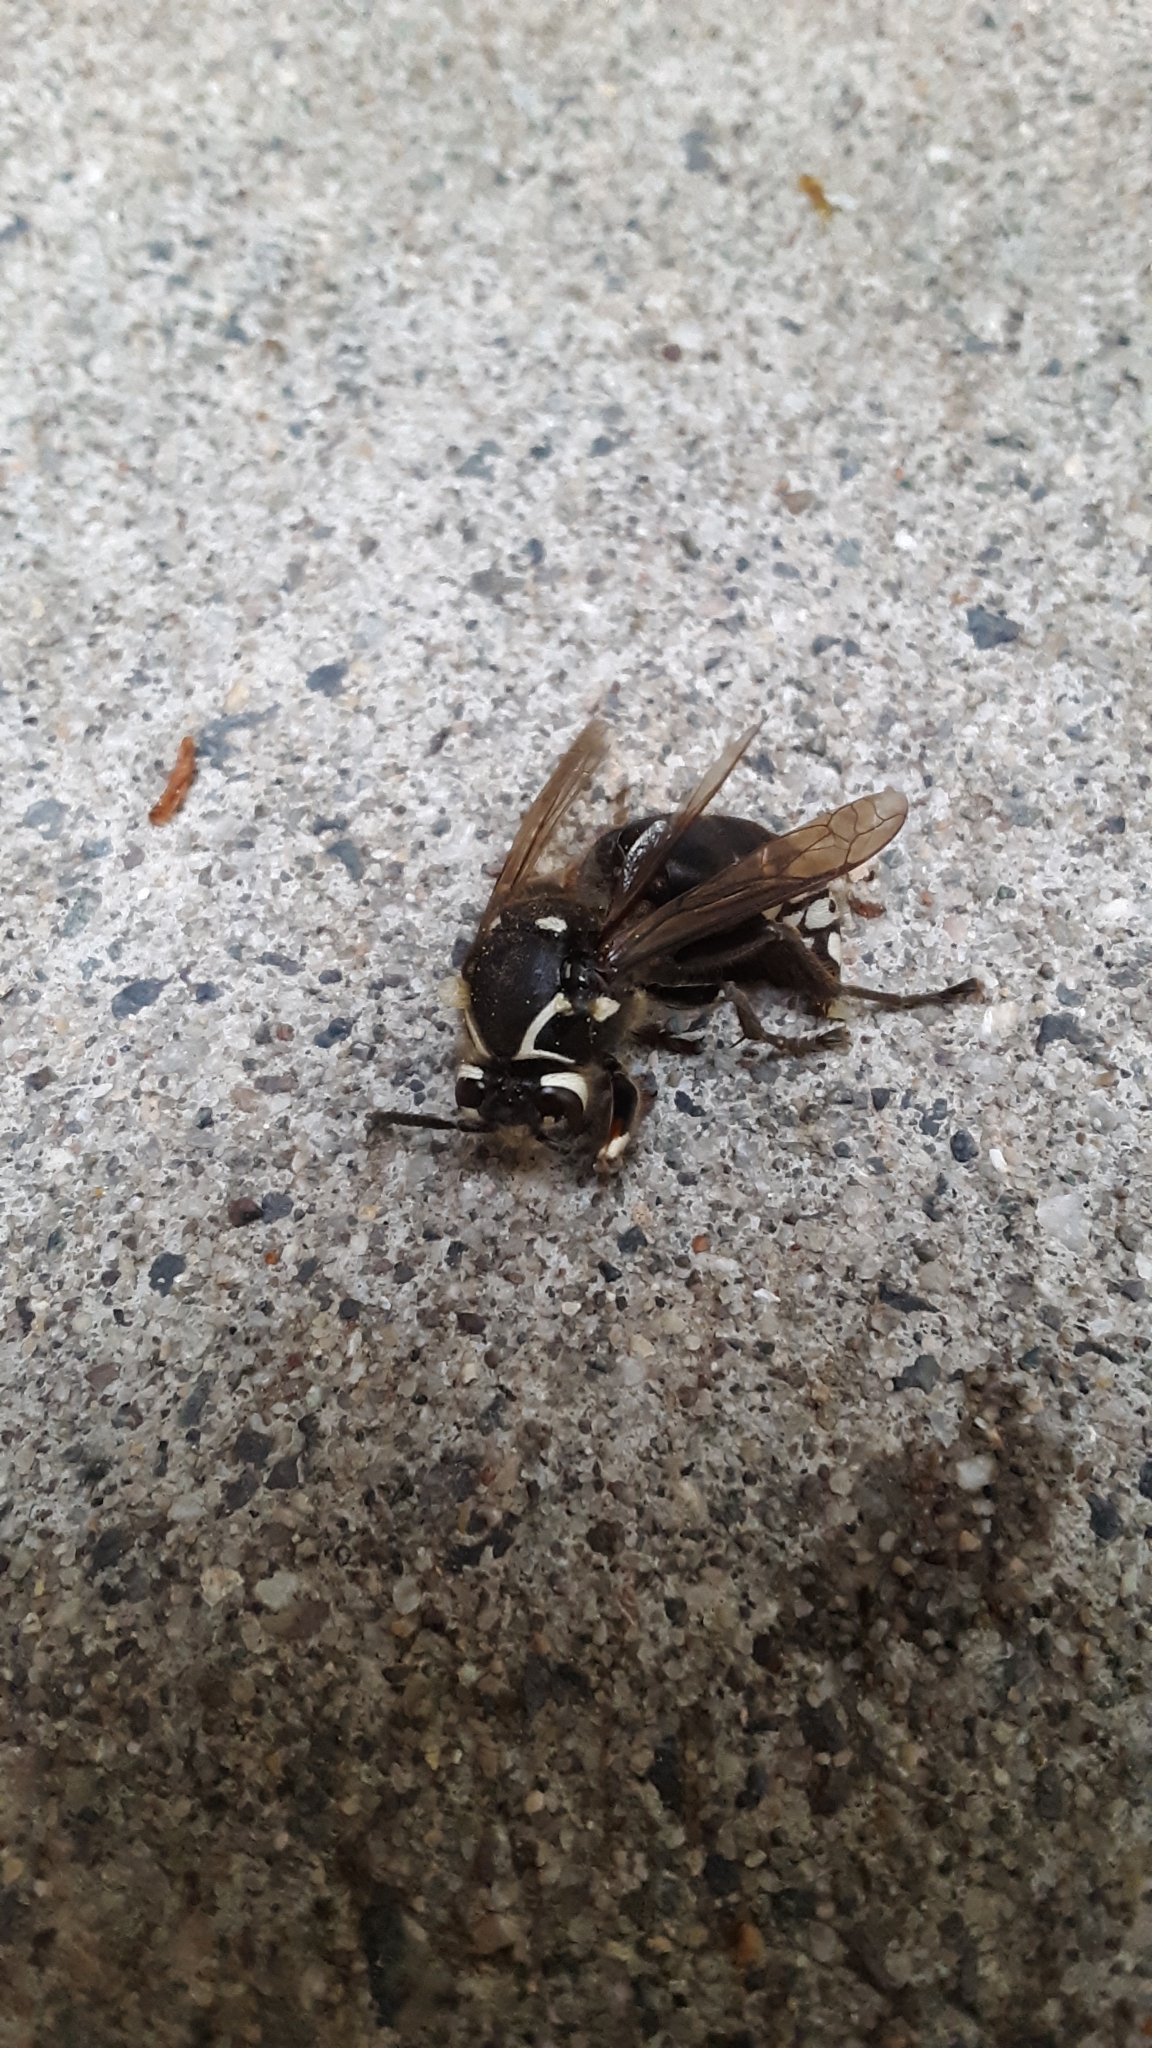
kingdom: Animalia
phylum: Arthropoda
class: Insecta
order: Hymenoptera
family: Vespidae
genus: Dolichovespula
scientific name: Dolichovespula maculata
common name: Bald-faced hornet
